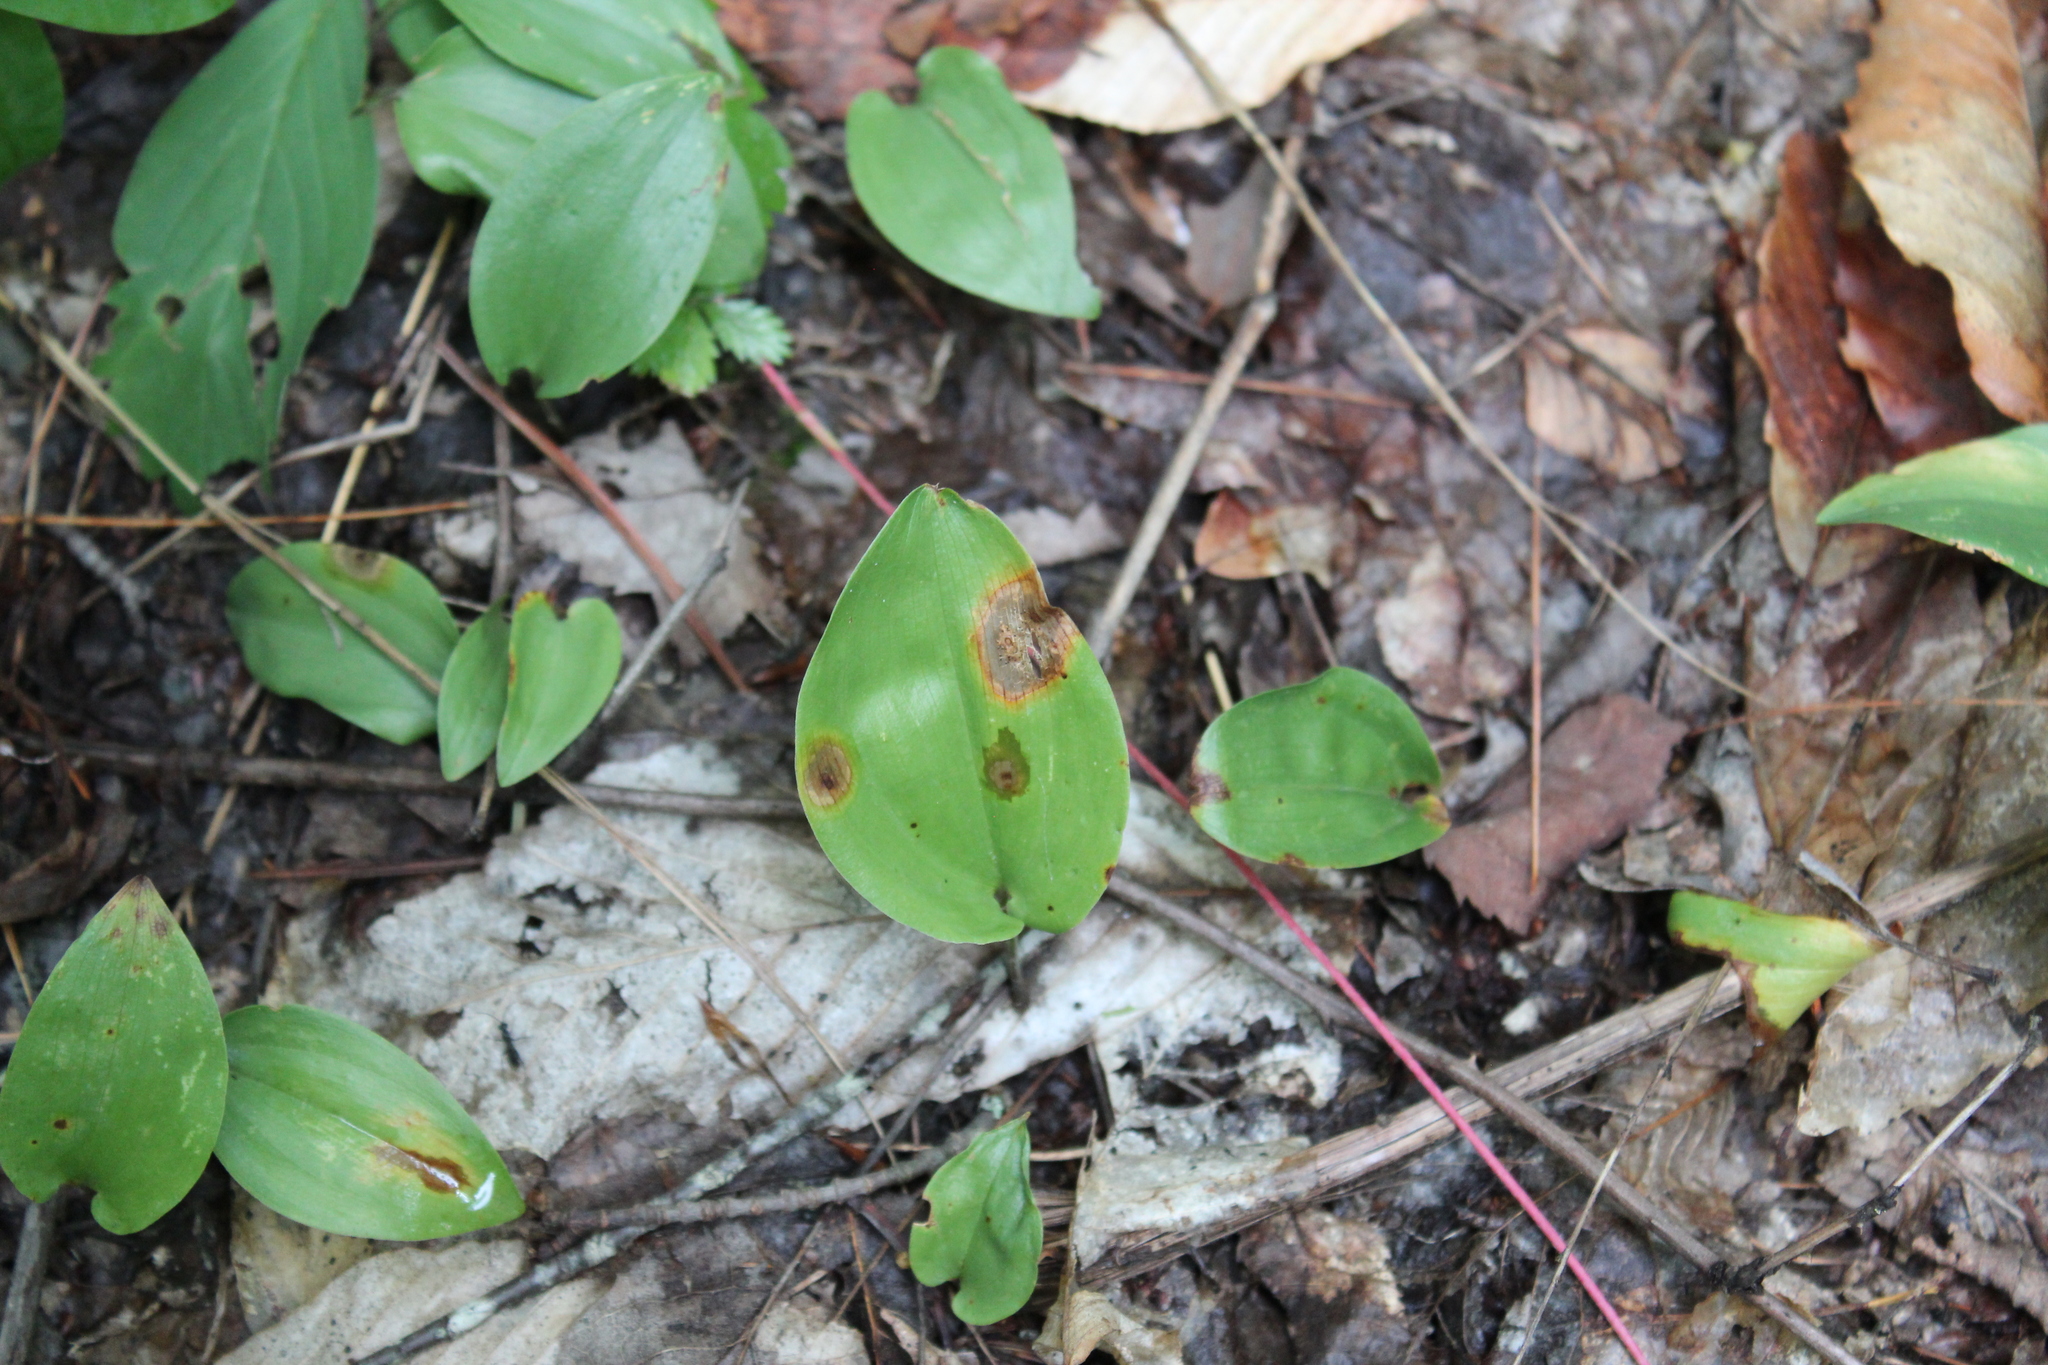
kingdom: Plantae
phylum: Tracheophyta
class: Liliopsida
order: Asparagales
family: Asparagaceae
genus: Maianthemum
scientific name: Maianthemum canadense
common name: False lily-of-the-valley
